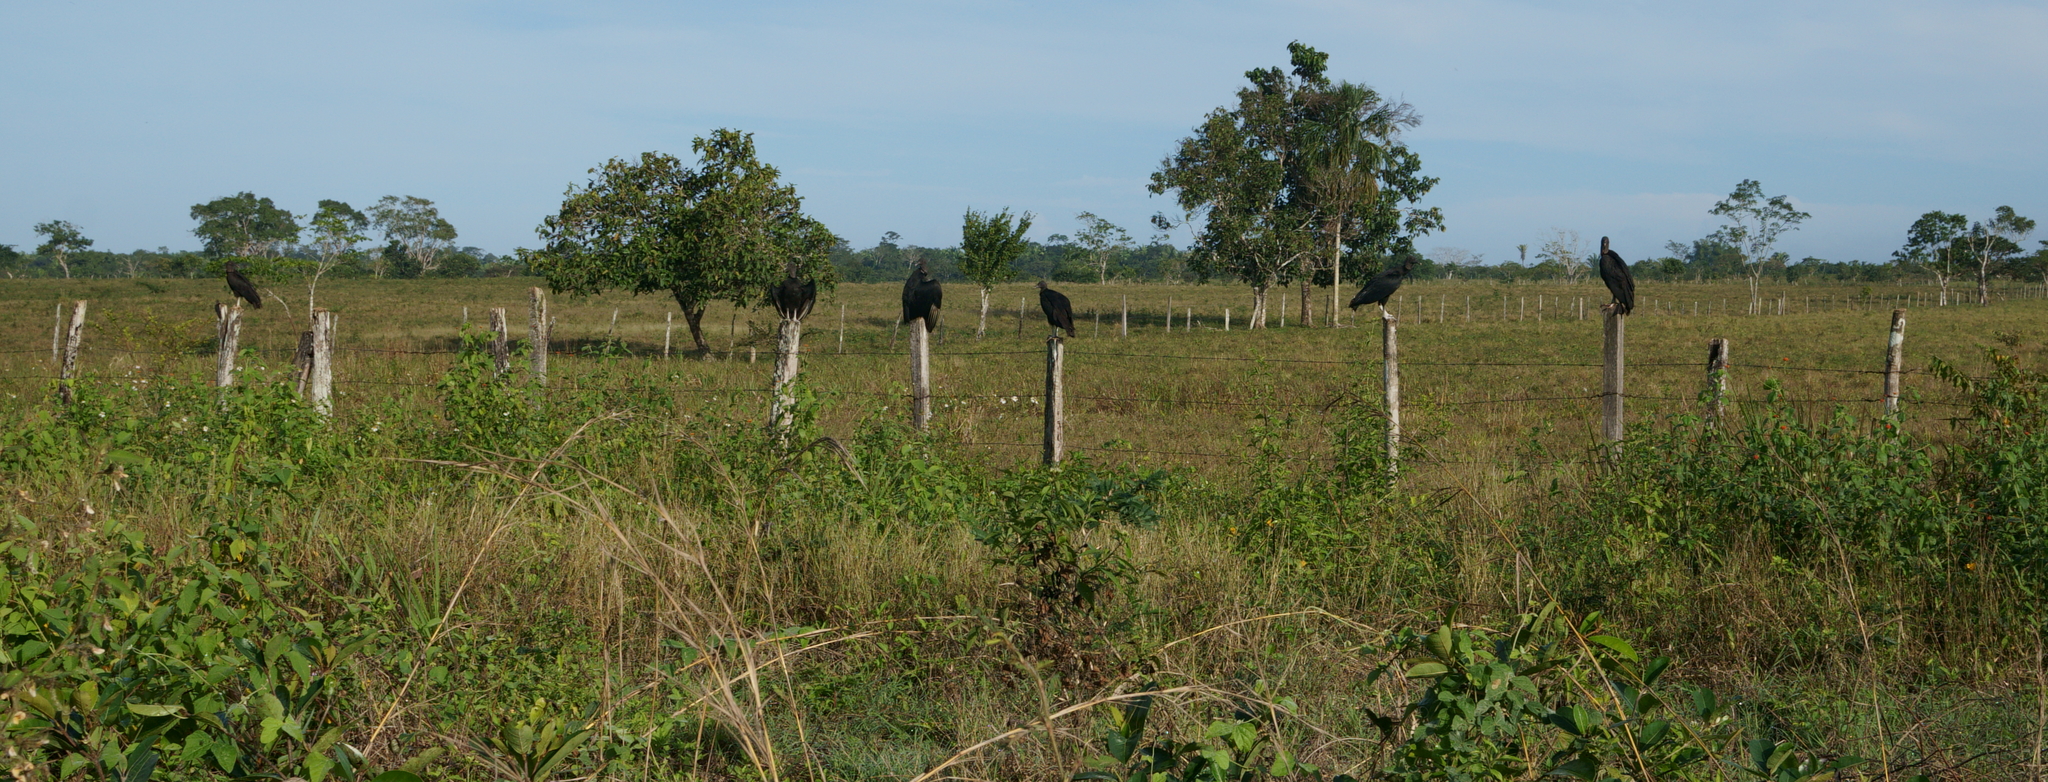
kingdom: Animalia
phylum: Chordata
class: Aves
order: Accipitriformes
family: Cathartidae
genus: Coragyps
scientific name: Coragyps atratus
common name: Black vulture
